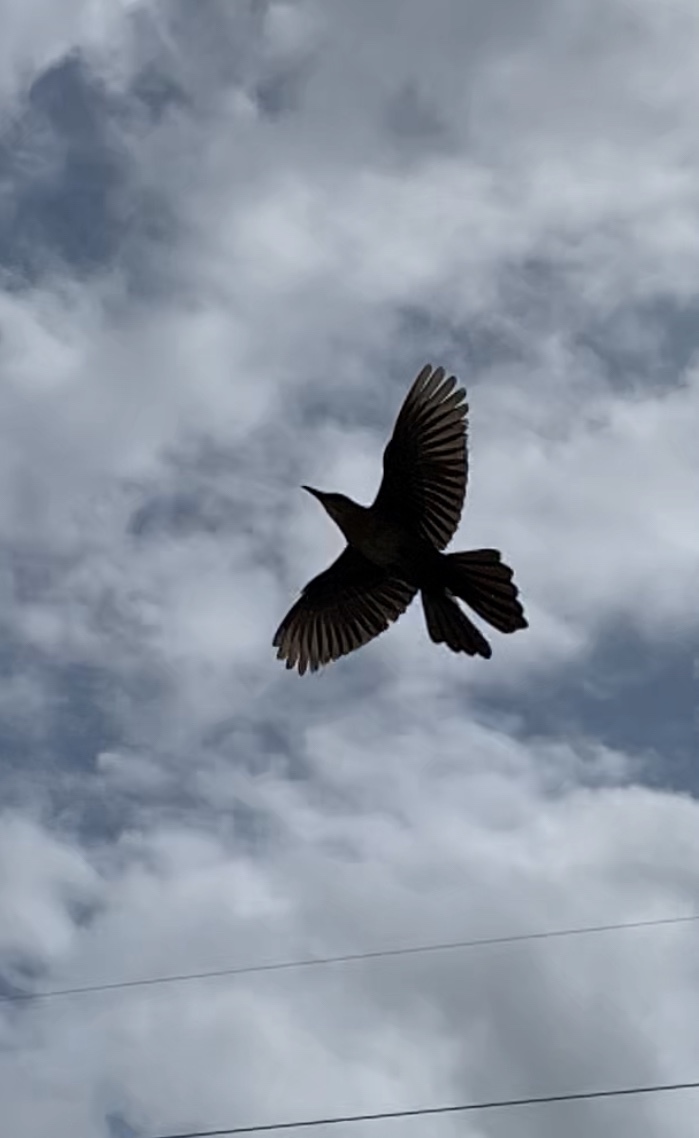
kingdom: Animalia
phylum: Chordata
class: Aves
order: Passeriformes
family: Icteridae
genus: Quiscalus
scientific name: Quiscalus major
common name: Boat-tailed grackle
